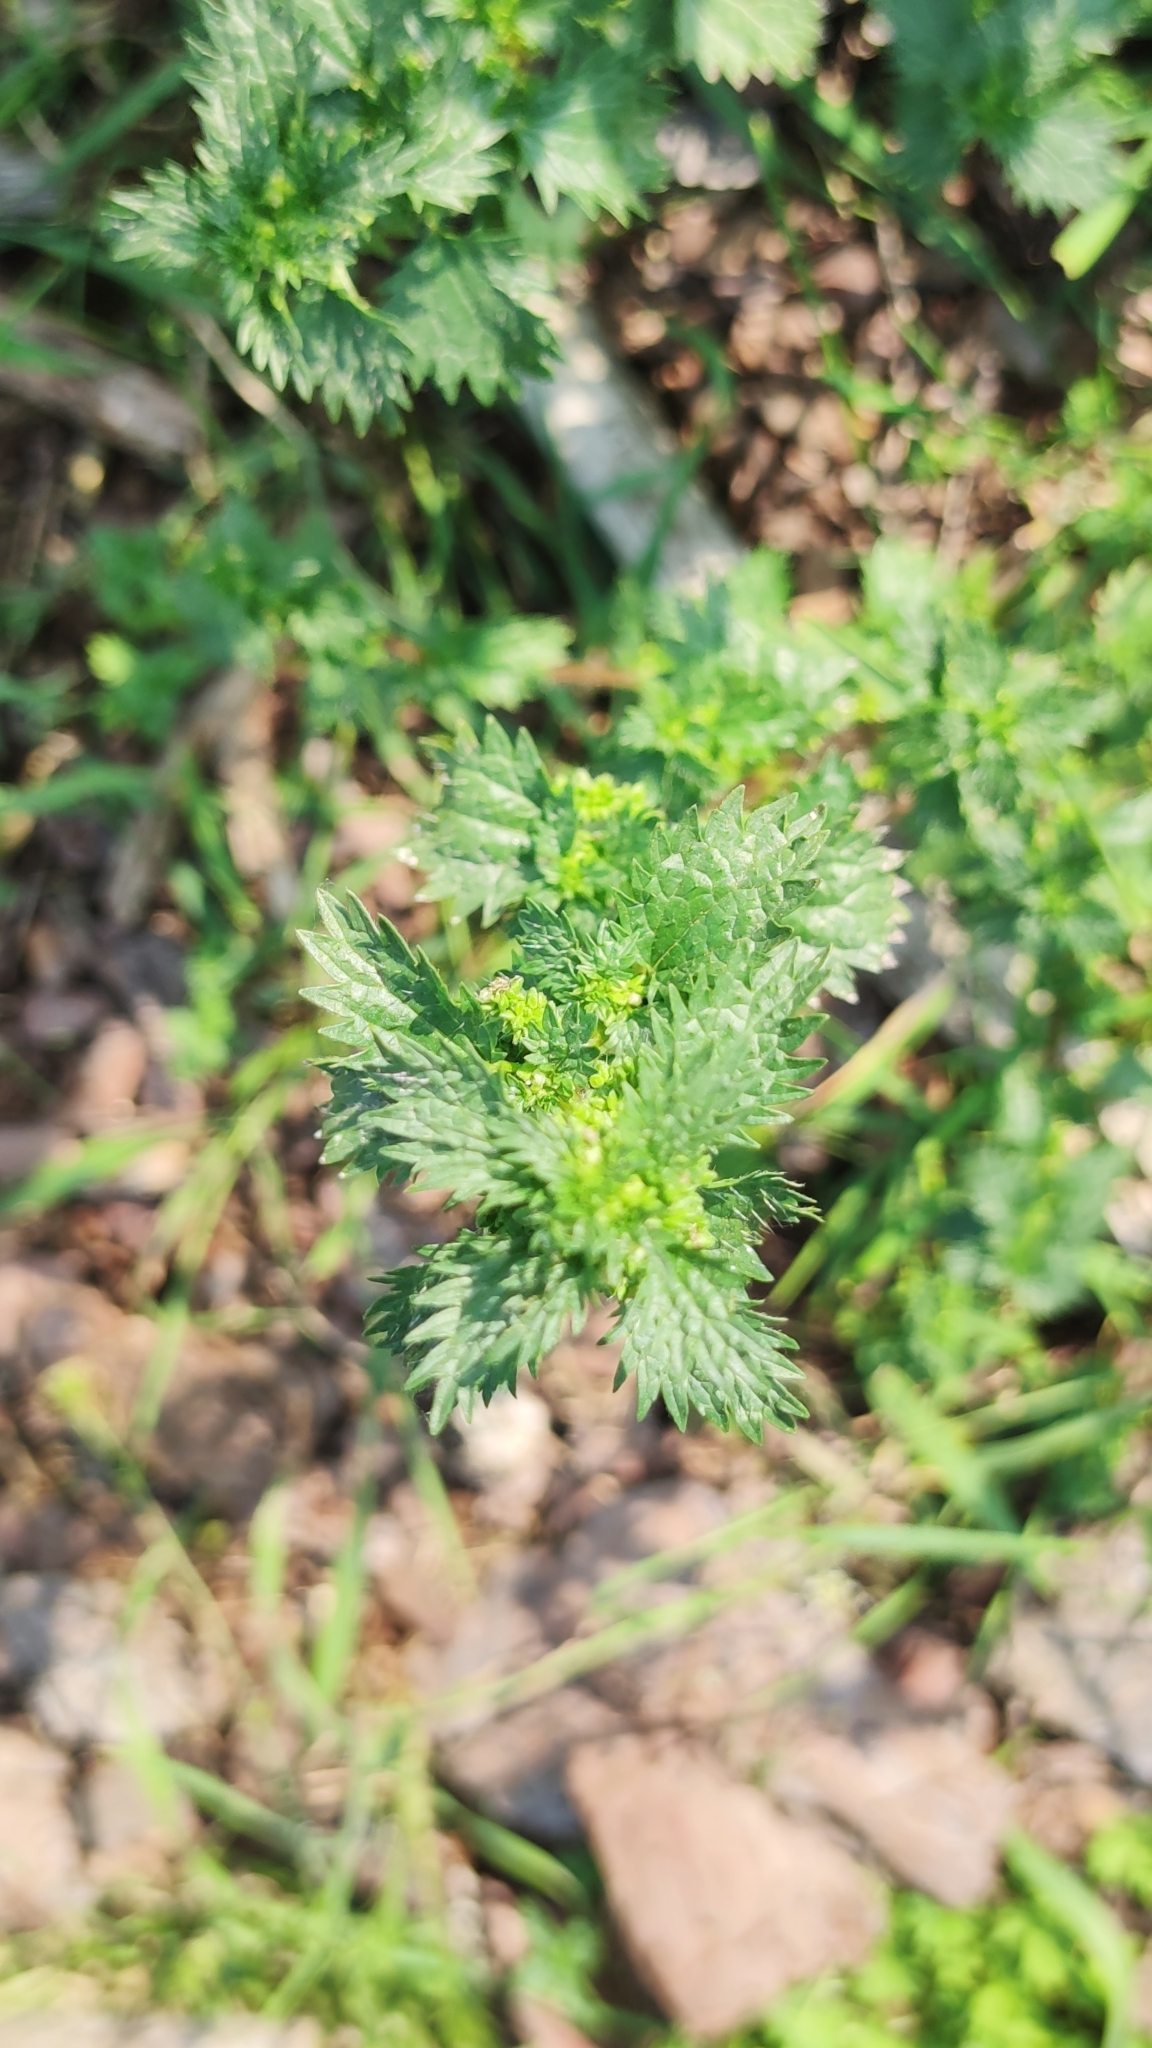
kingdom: Plantae
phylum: Tracheophyta
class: Magnoliopsida
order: Rosales
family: Urticaceae
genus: Urtica
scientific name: Urtica urens
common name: Dwarf nettle
